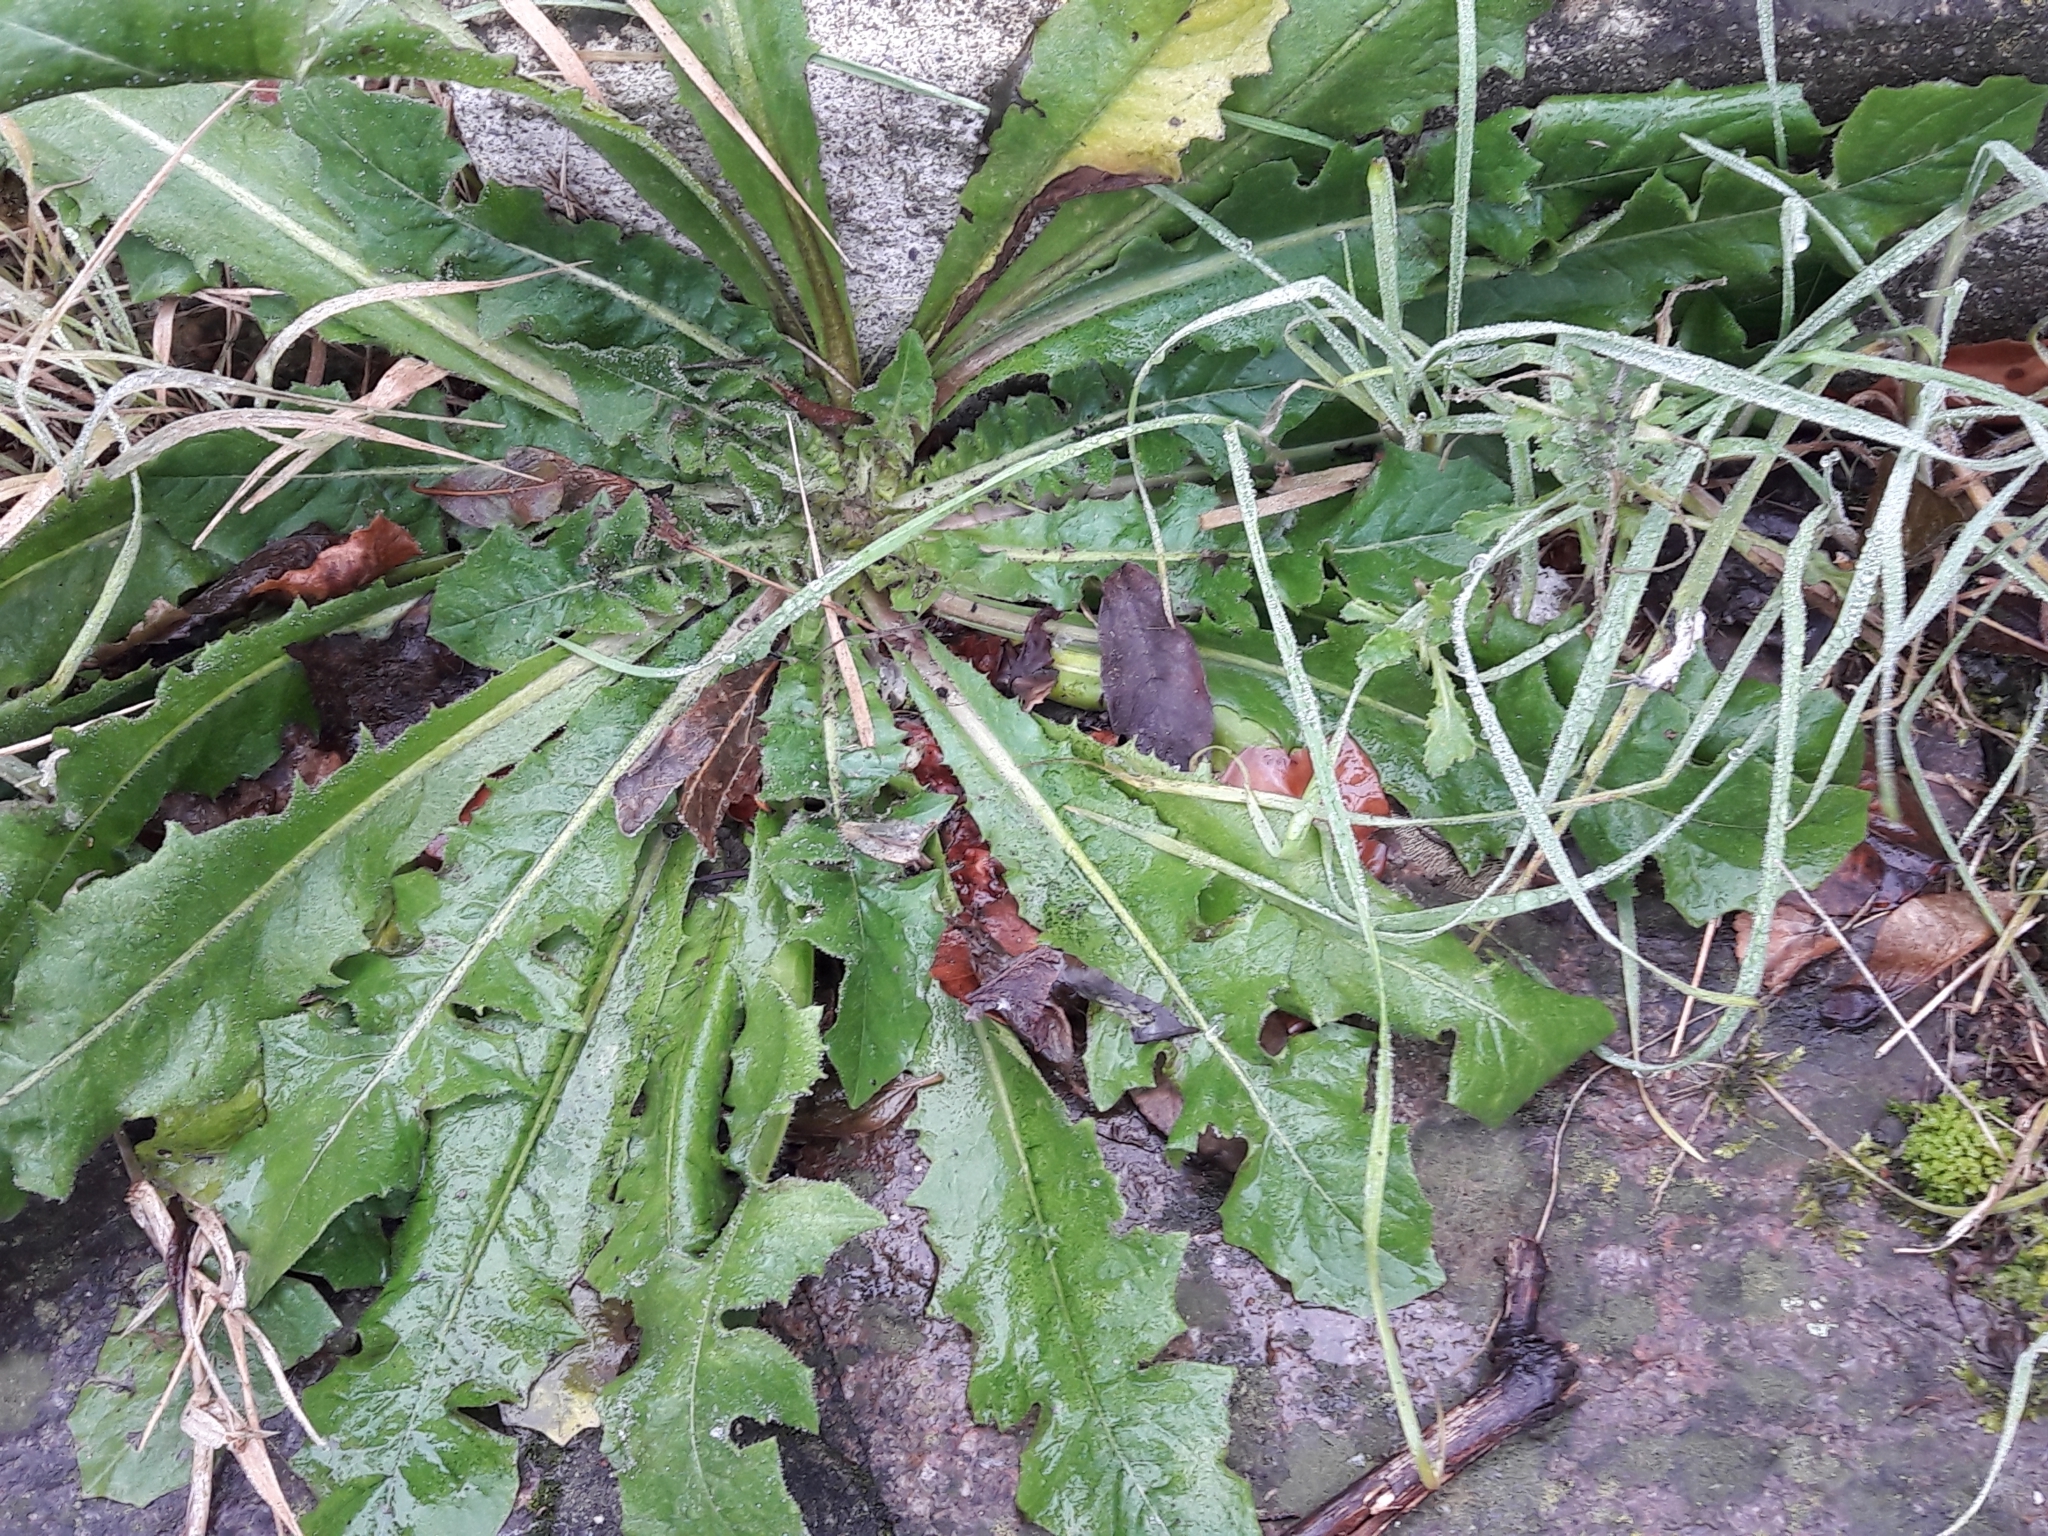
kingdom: Plantae
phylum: Tracheophyta
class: Magnoliopsida
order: Asterales
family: Asteraceae
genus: Taraxacum
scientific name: Taraxacum officinale
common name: Common dandelion
